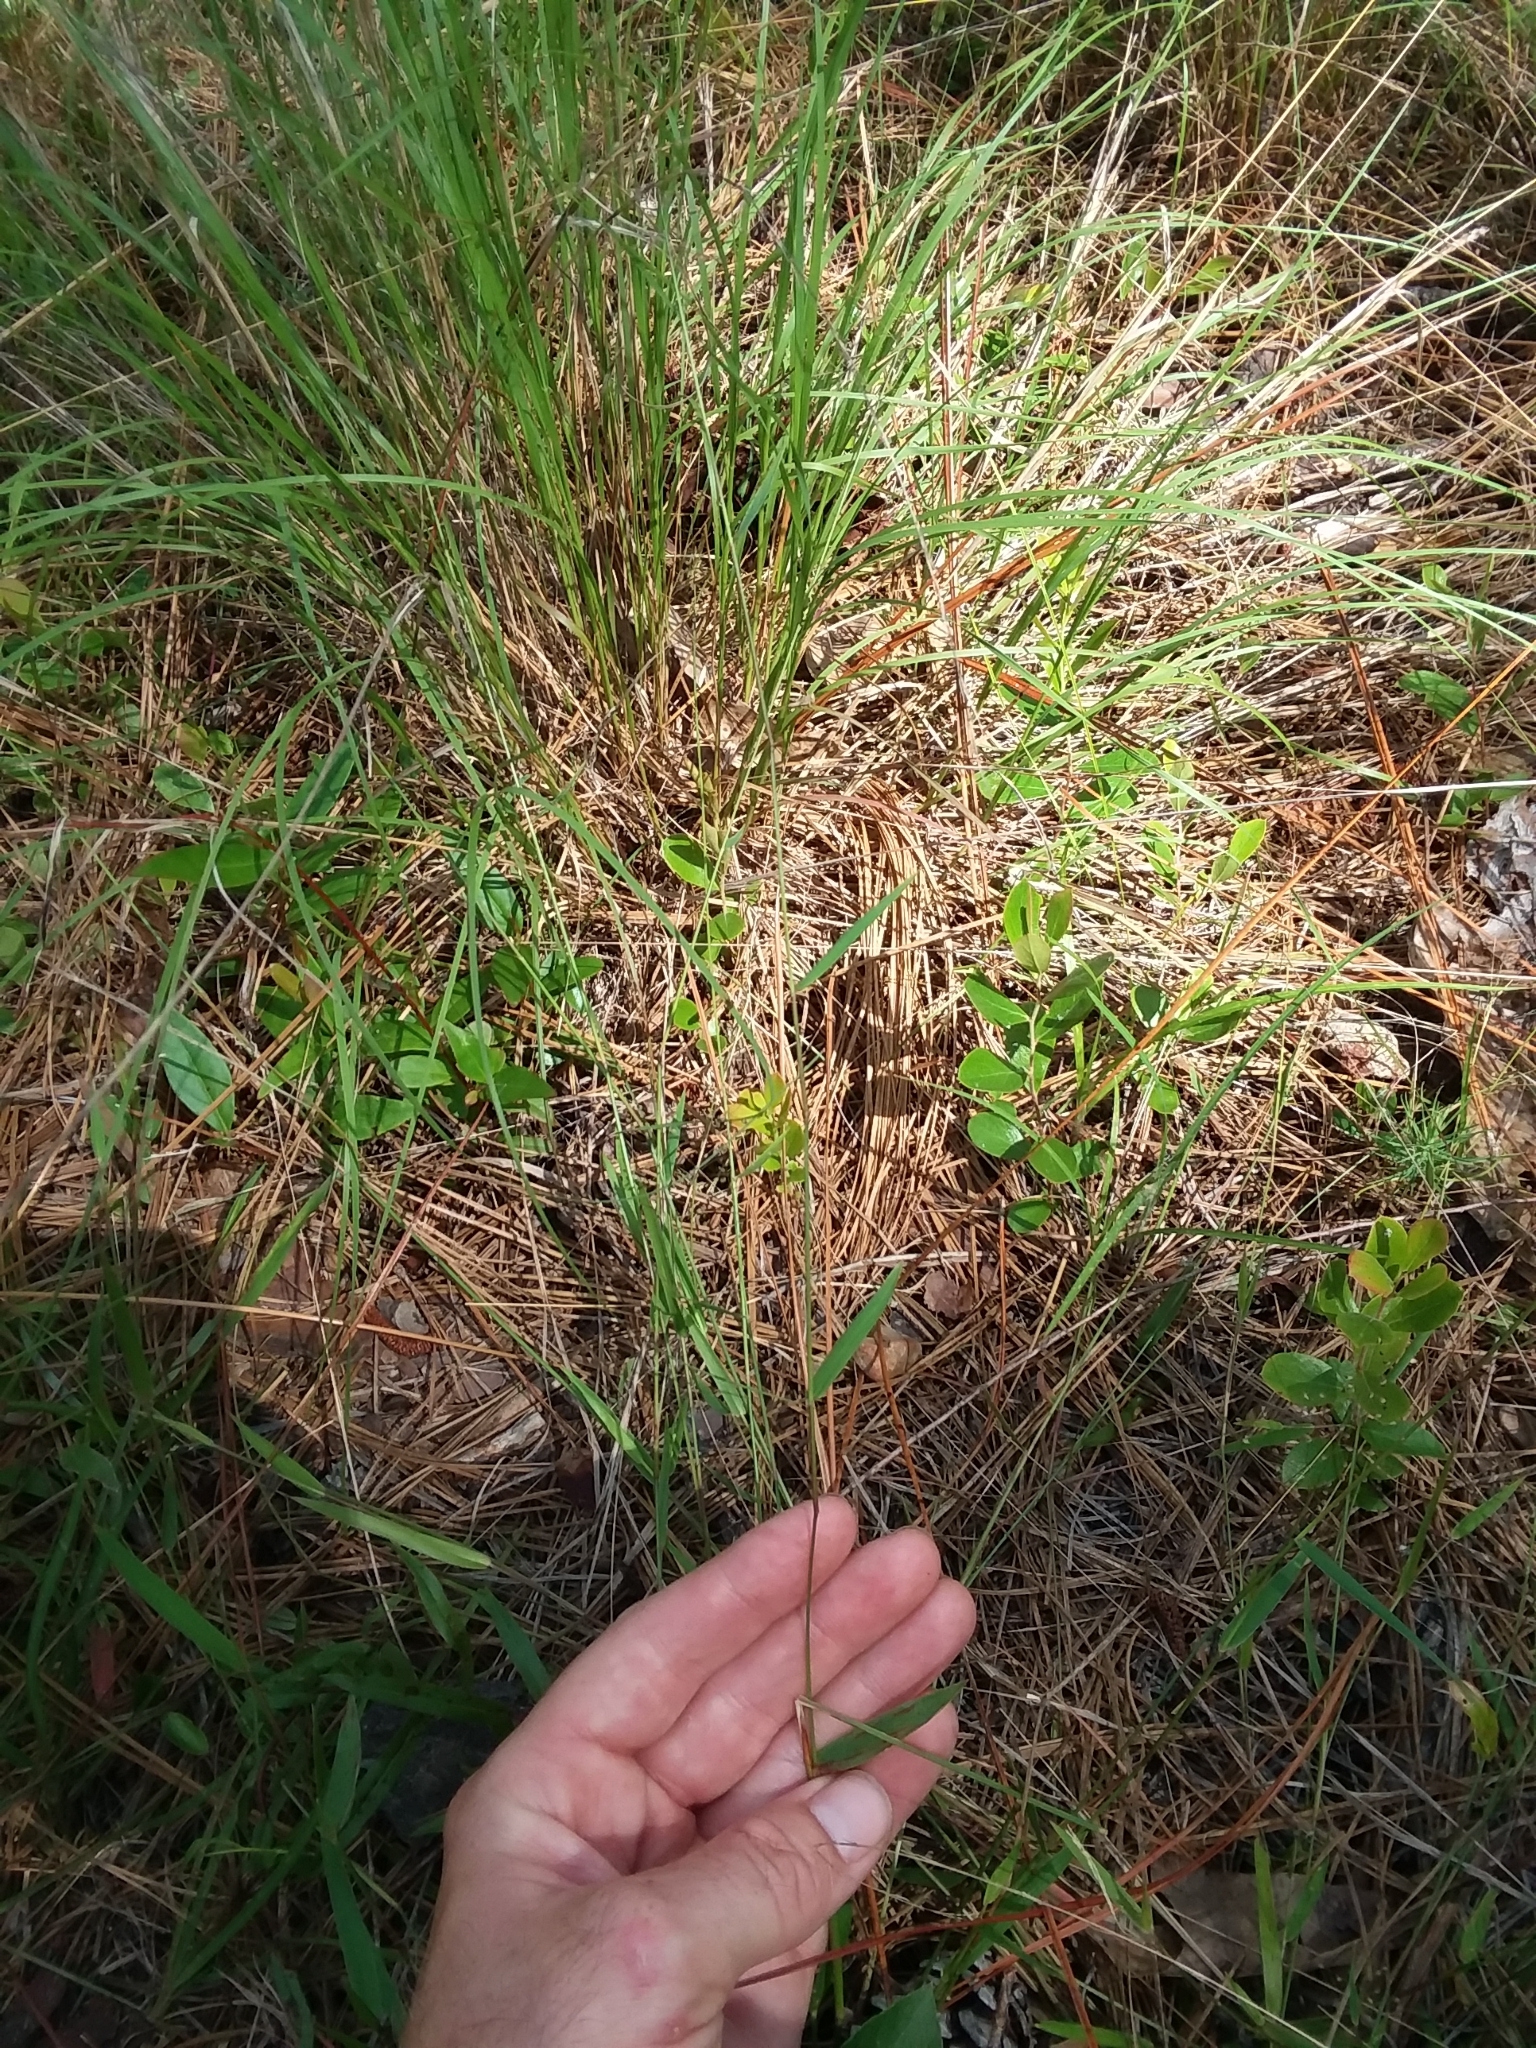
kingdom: Plantae
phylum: Tracheophyta
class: Liliopsida
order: Poales
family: Poaceae
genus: Dichanthelium
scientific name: Dichanthelium tenue
